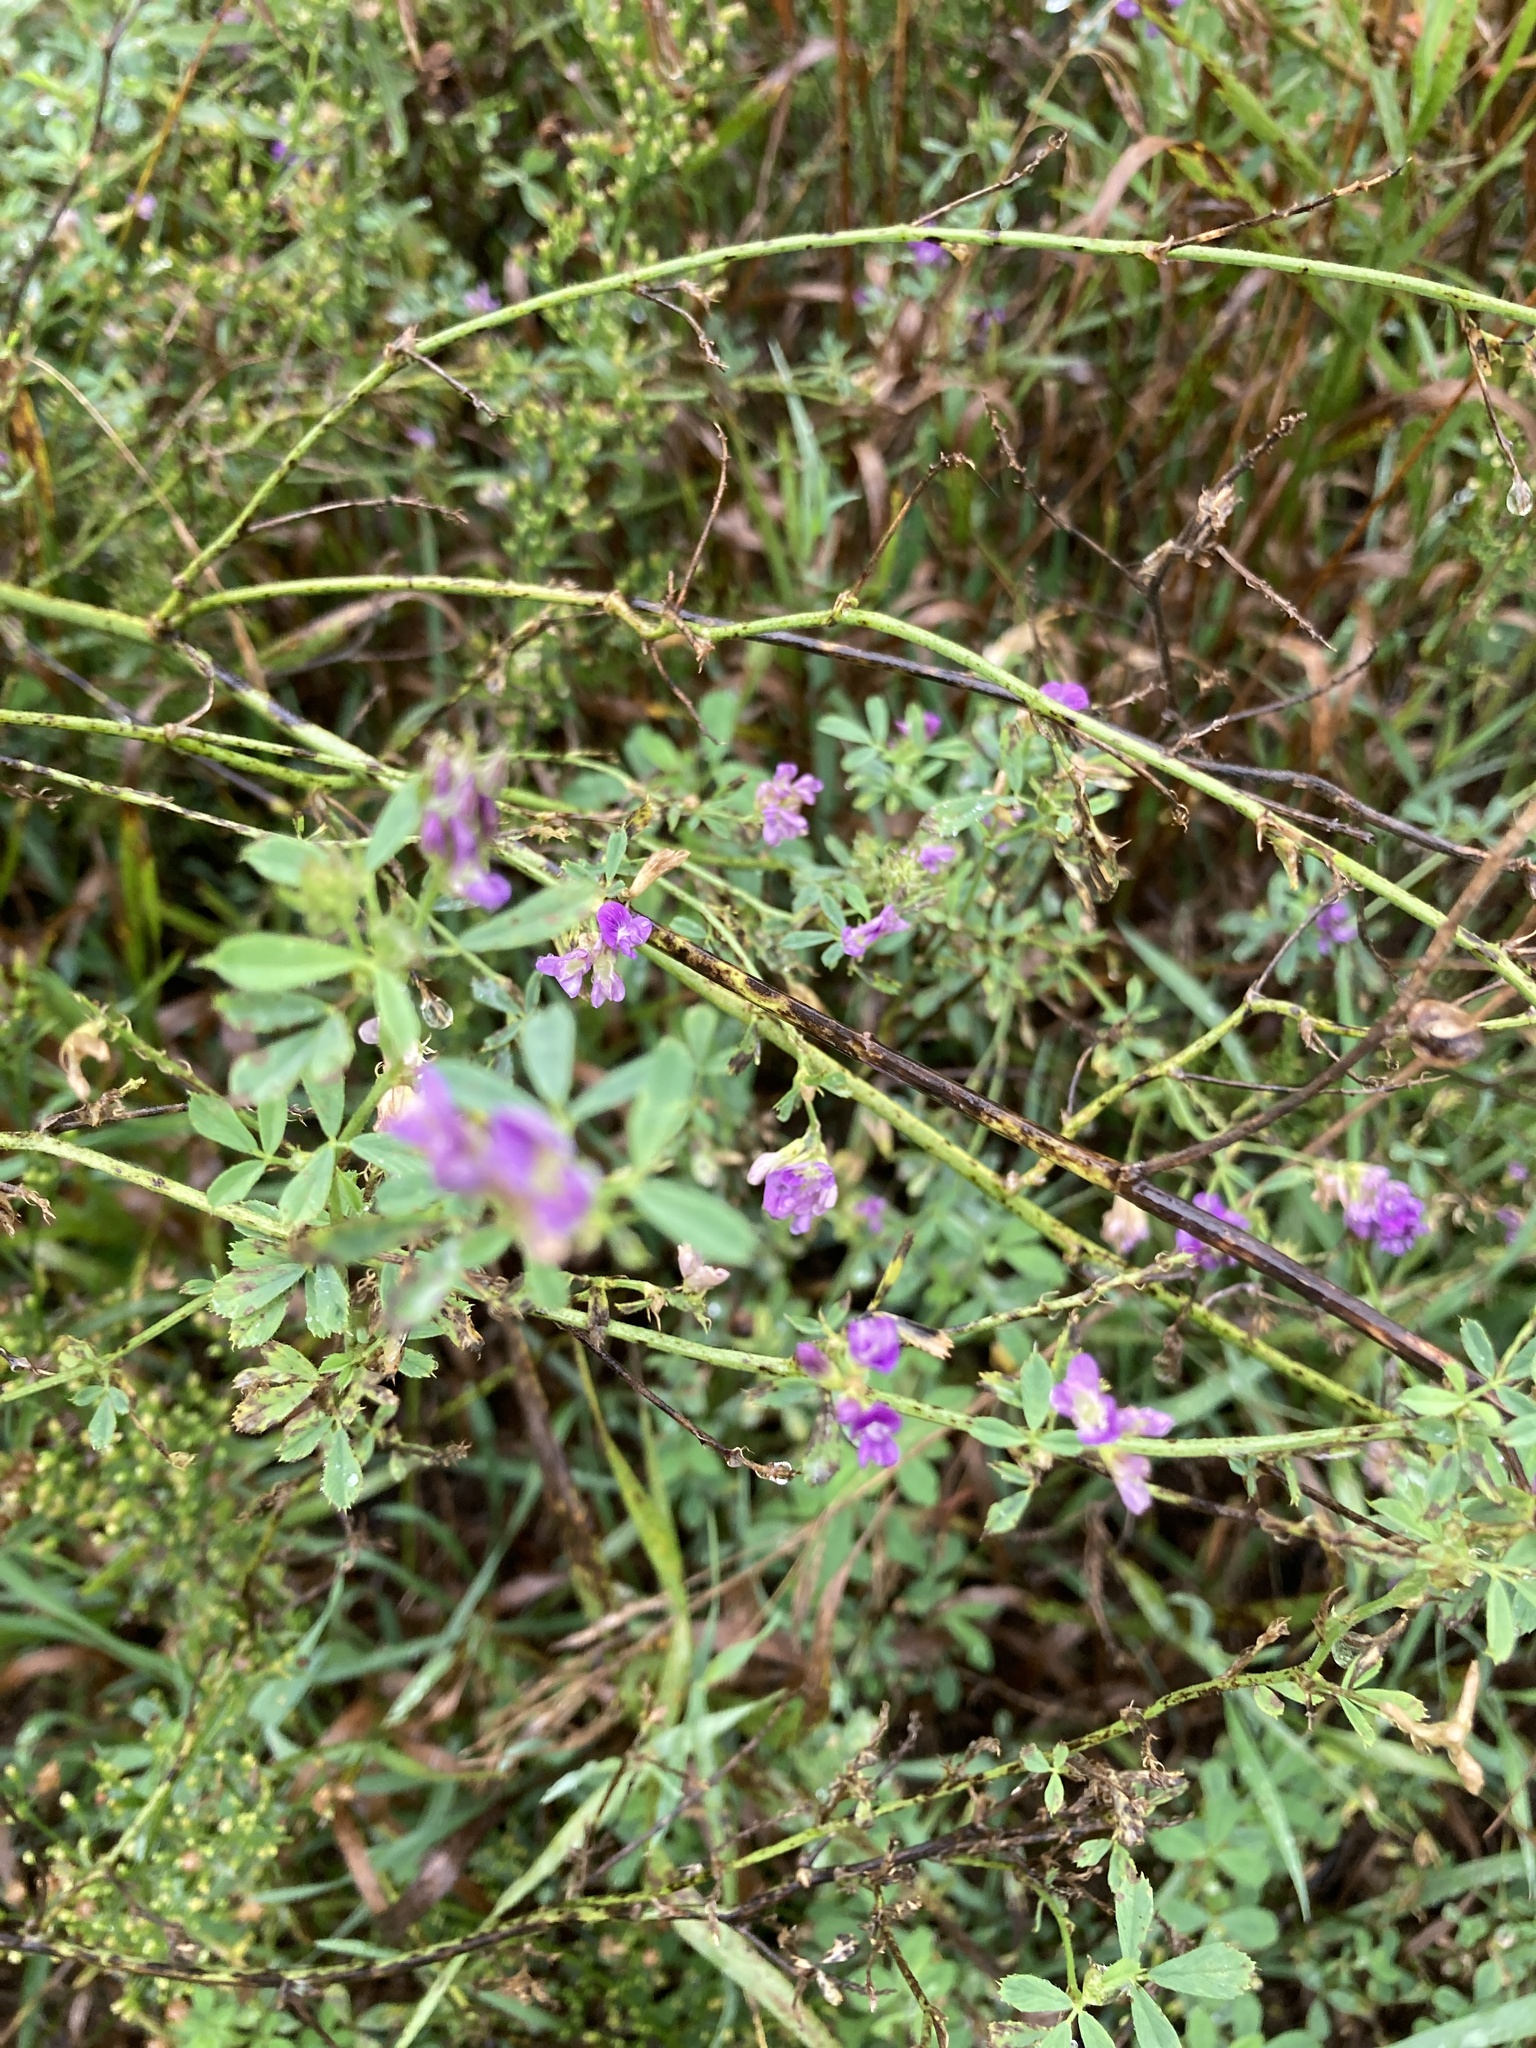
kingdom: Plantae
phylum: Tracheophyta
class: Magnoliopsida
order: Myrtales
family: Lythraceae
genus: Lythrum
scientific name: Lythrum alatum
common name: Winged loosestrife
